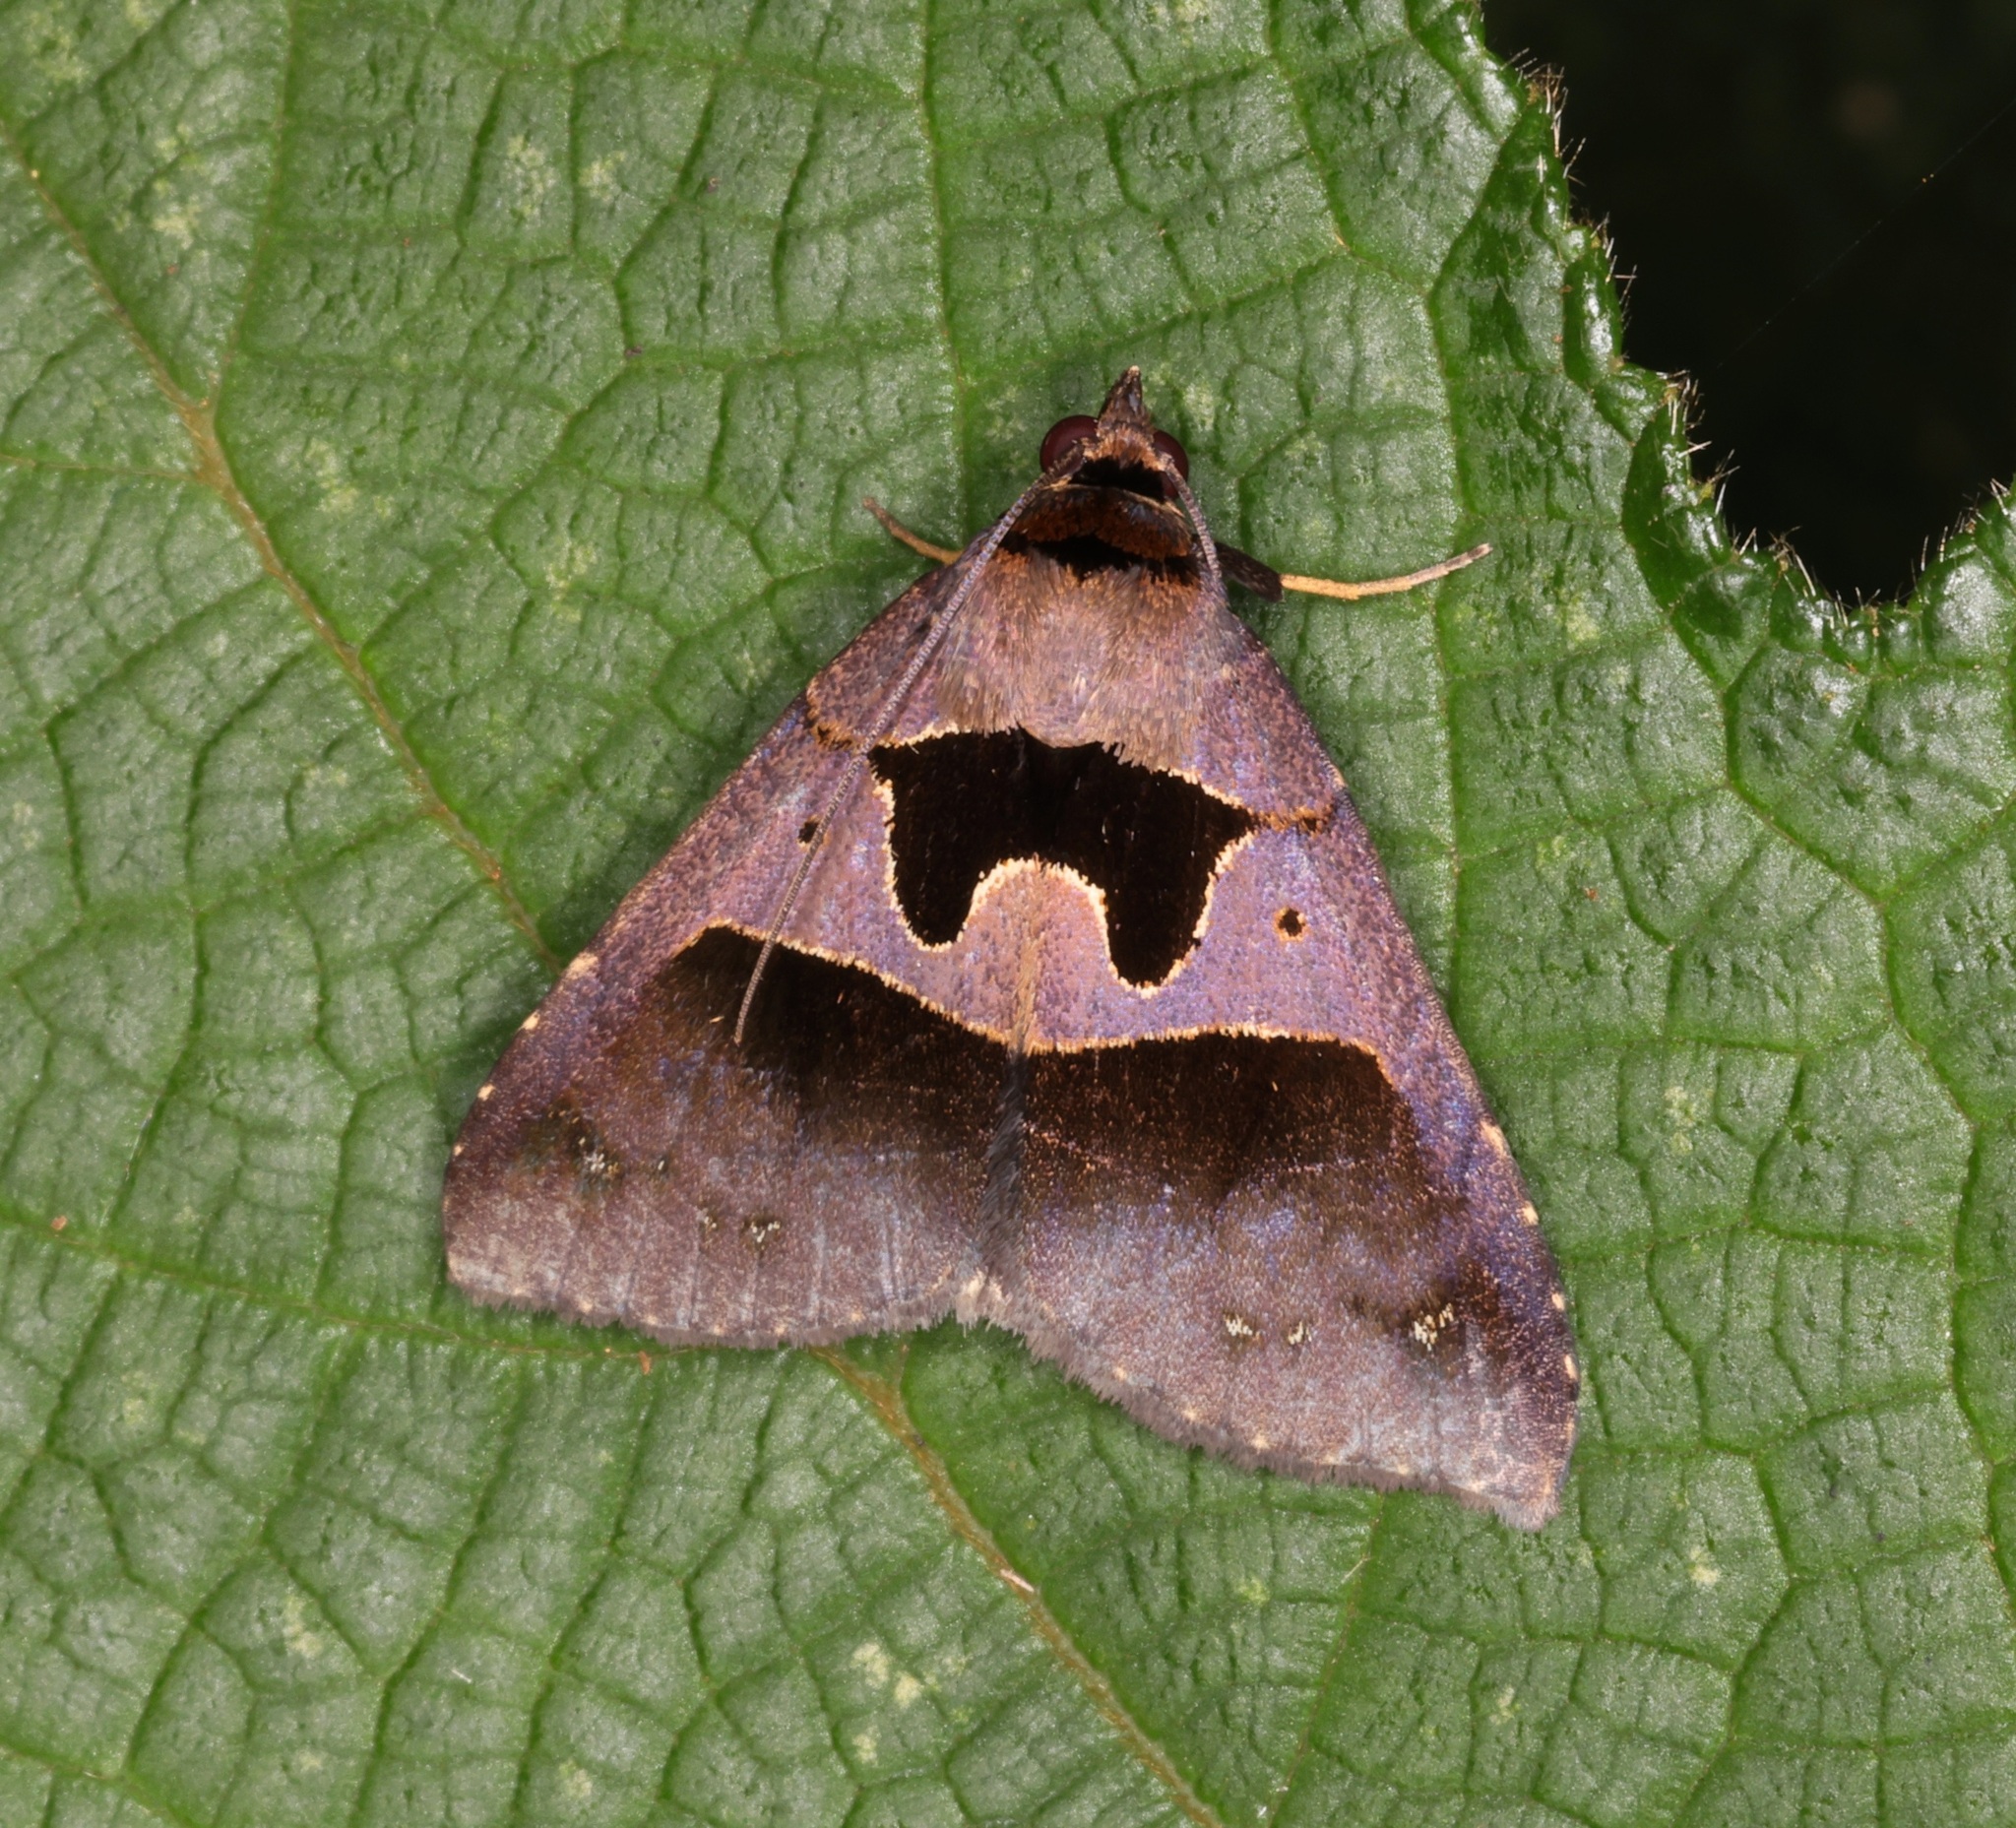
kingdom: Animalia
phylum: Arthropoda
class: Insecta
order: Lepidoptera
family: Erebidae
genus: Crithote
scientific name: Crithote pallivaga
